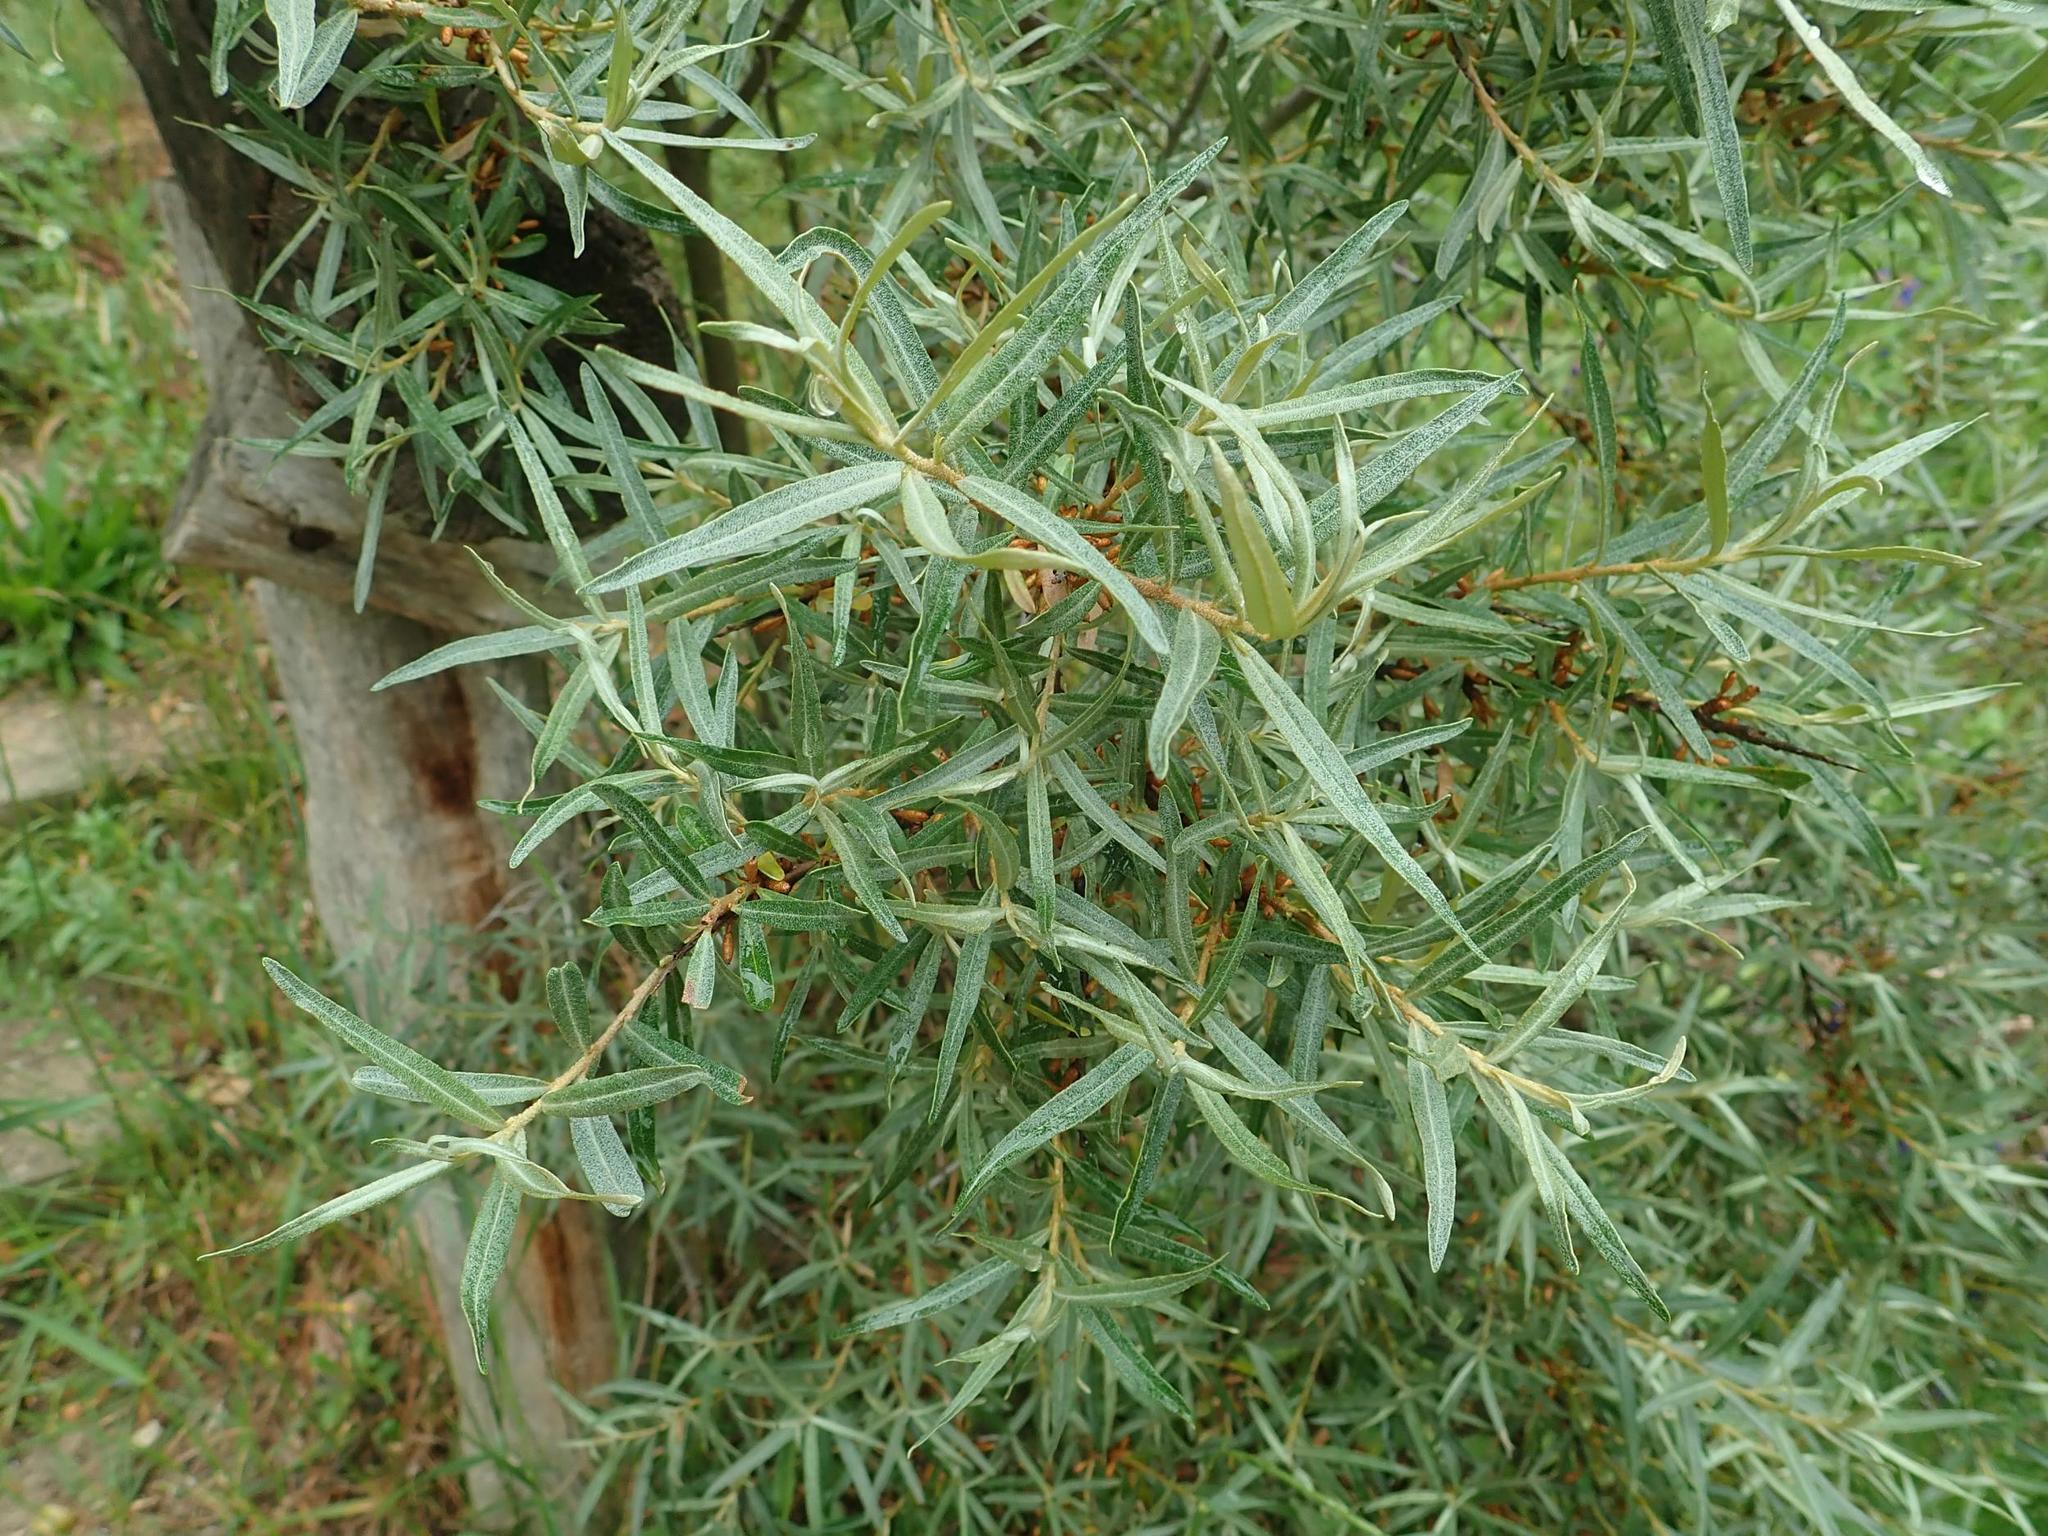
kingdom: Plantae
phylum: Tracheophyta
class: Magnoliopsida
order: Rosales
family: Elaeagnaceae
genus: Hippophae
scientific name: Hippophae rhamnoides
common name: Sea-buckthorn
